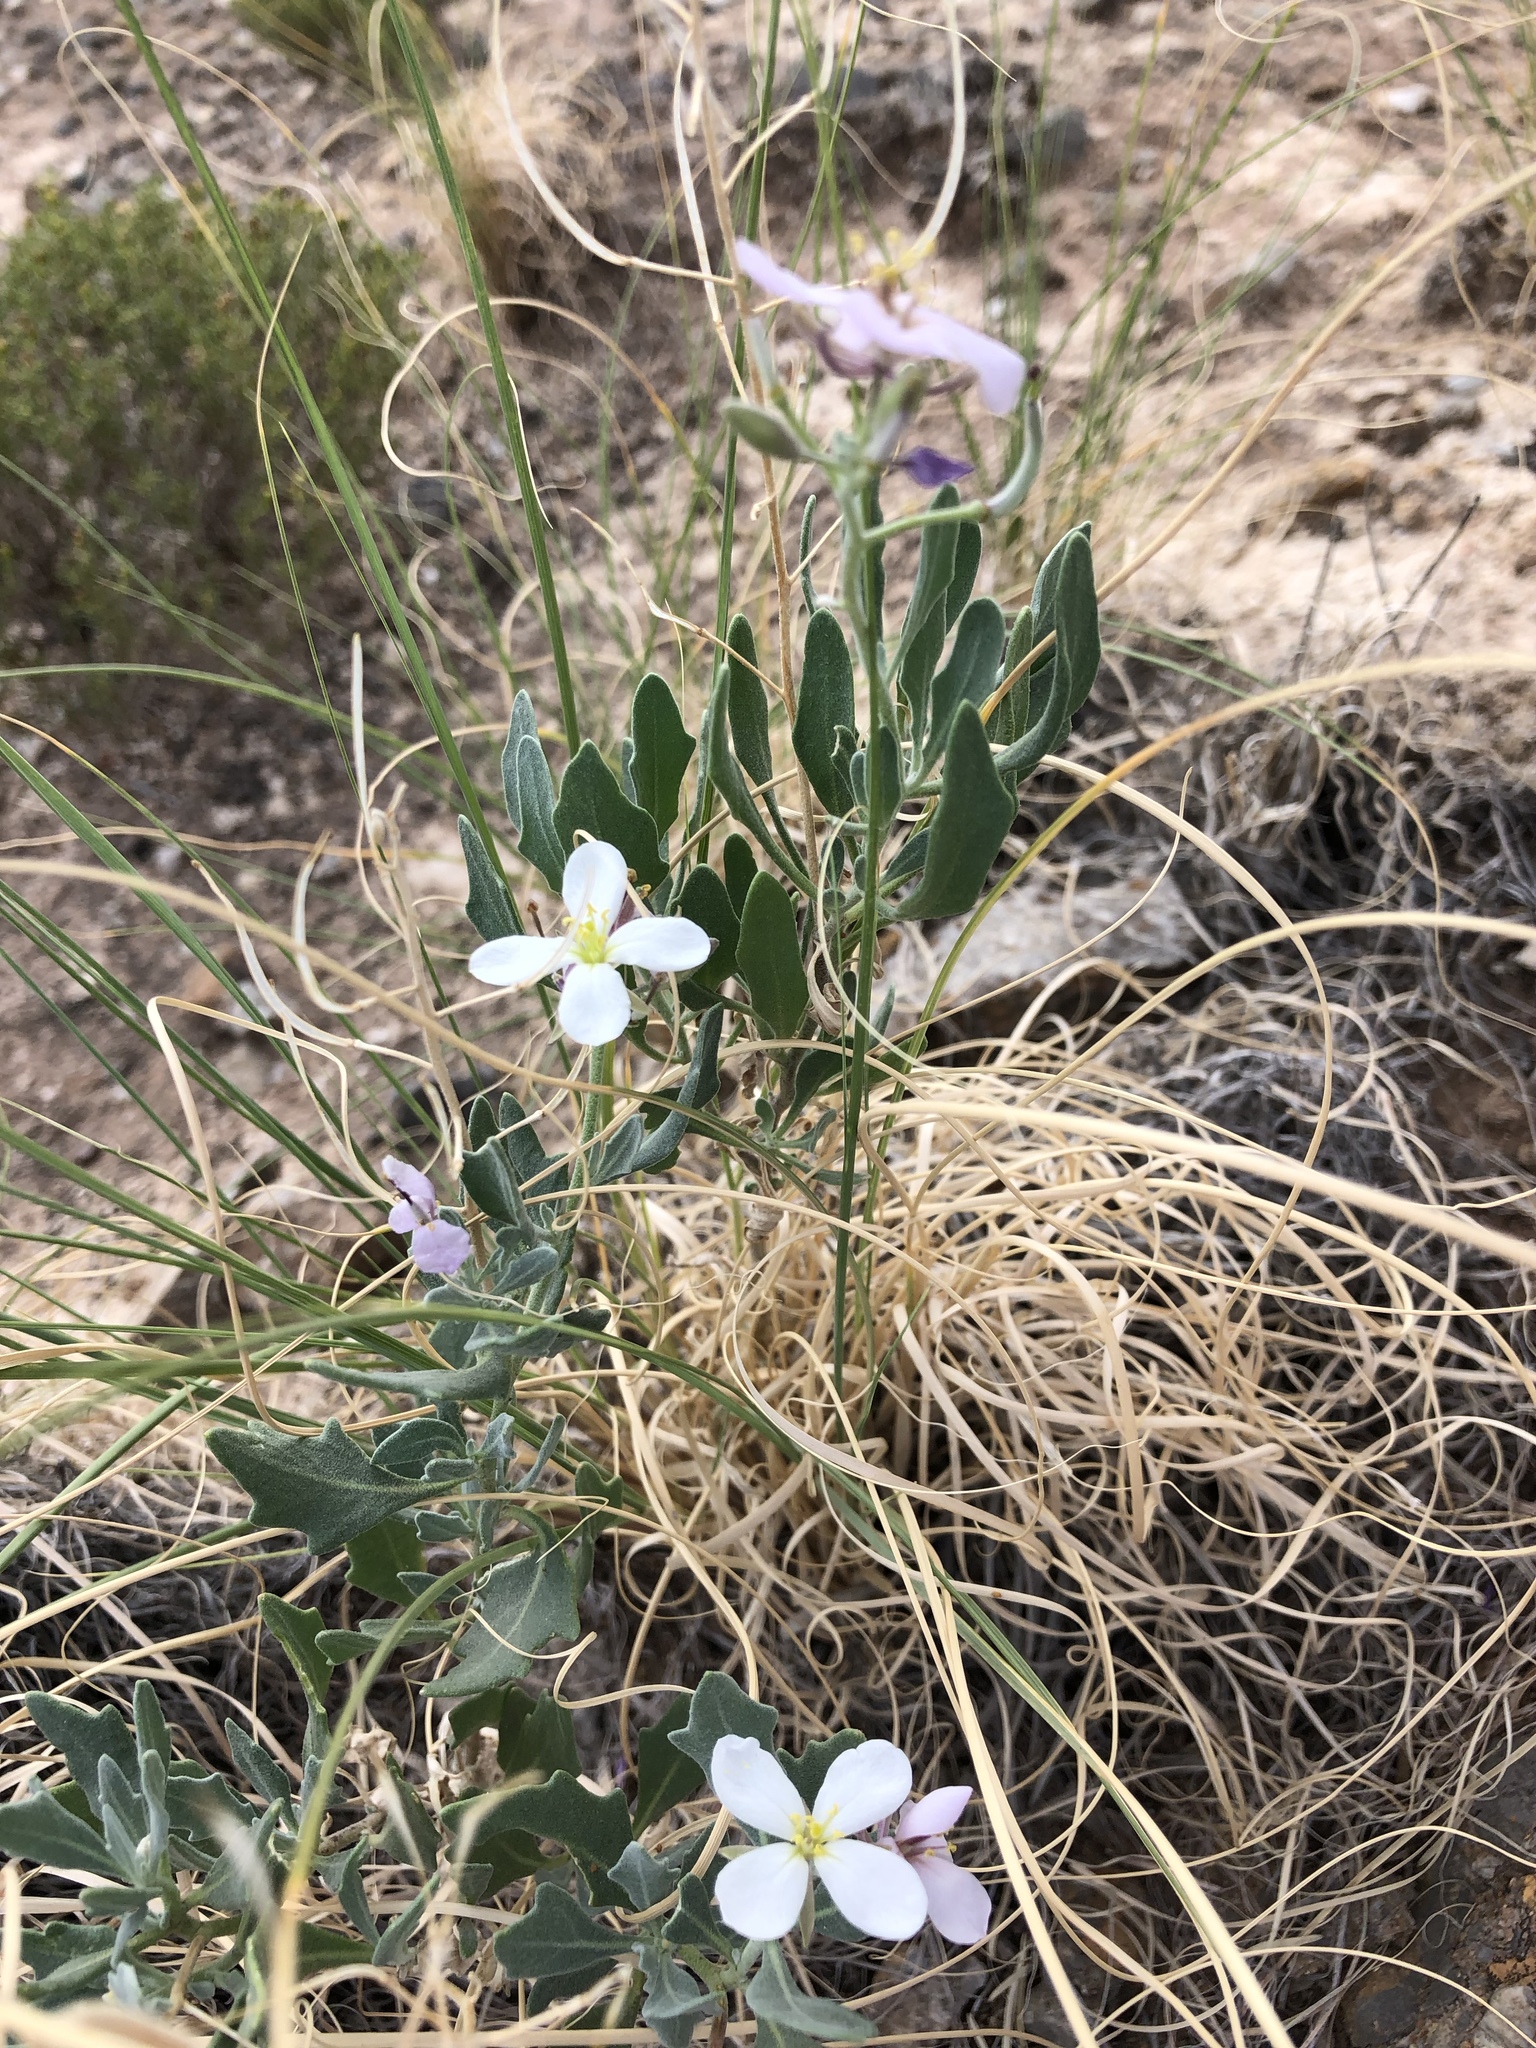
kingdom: Plantae
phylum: Tracheophyta
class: Magnoliopsida
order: Brassicales
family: Brassicaceae
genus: Nerisyrenia
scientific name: Nerisyrenia camporum
